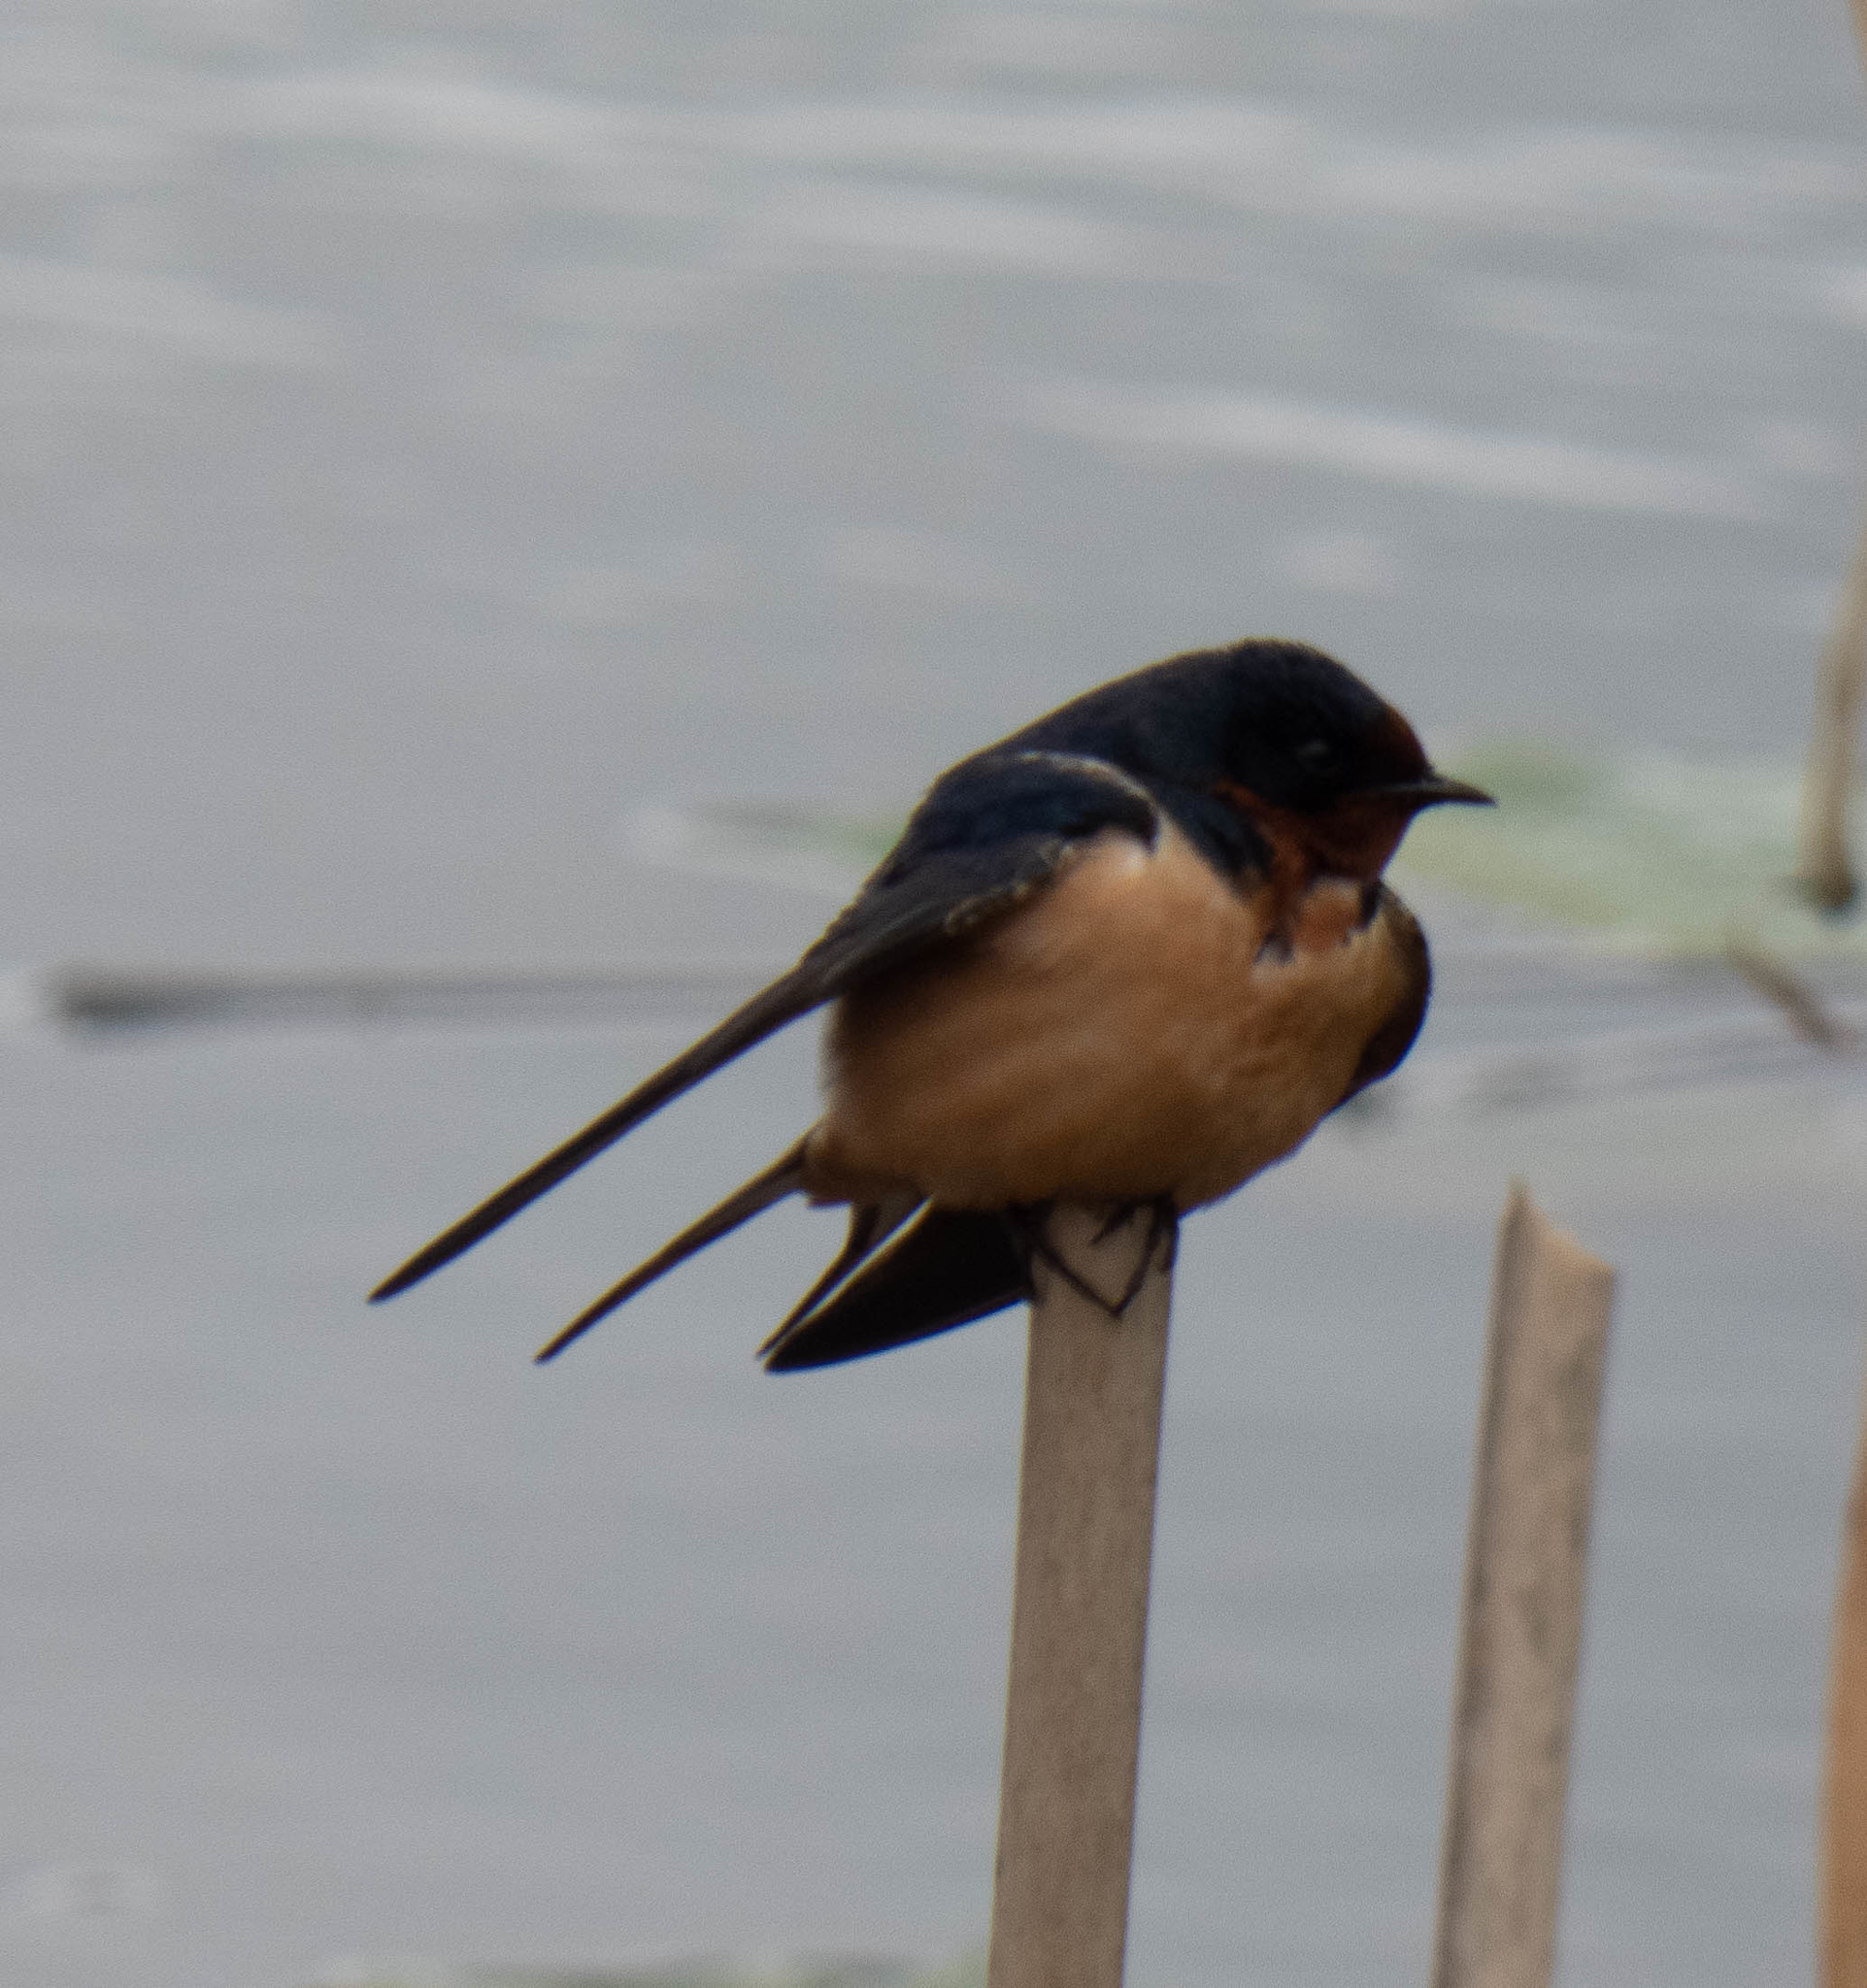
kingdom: Animalia
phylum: Chordata
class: Aves
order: Passeriformes
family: Hirundinidae
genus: Hirundo
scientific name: Hirundo rustica
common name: Barn swallow
